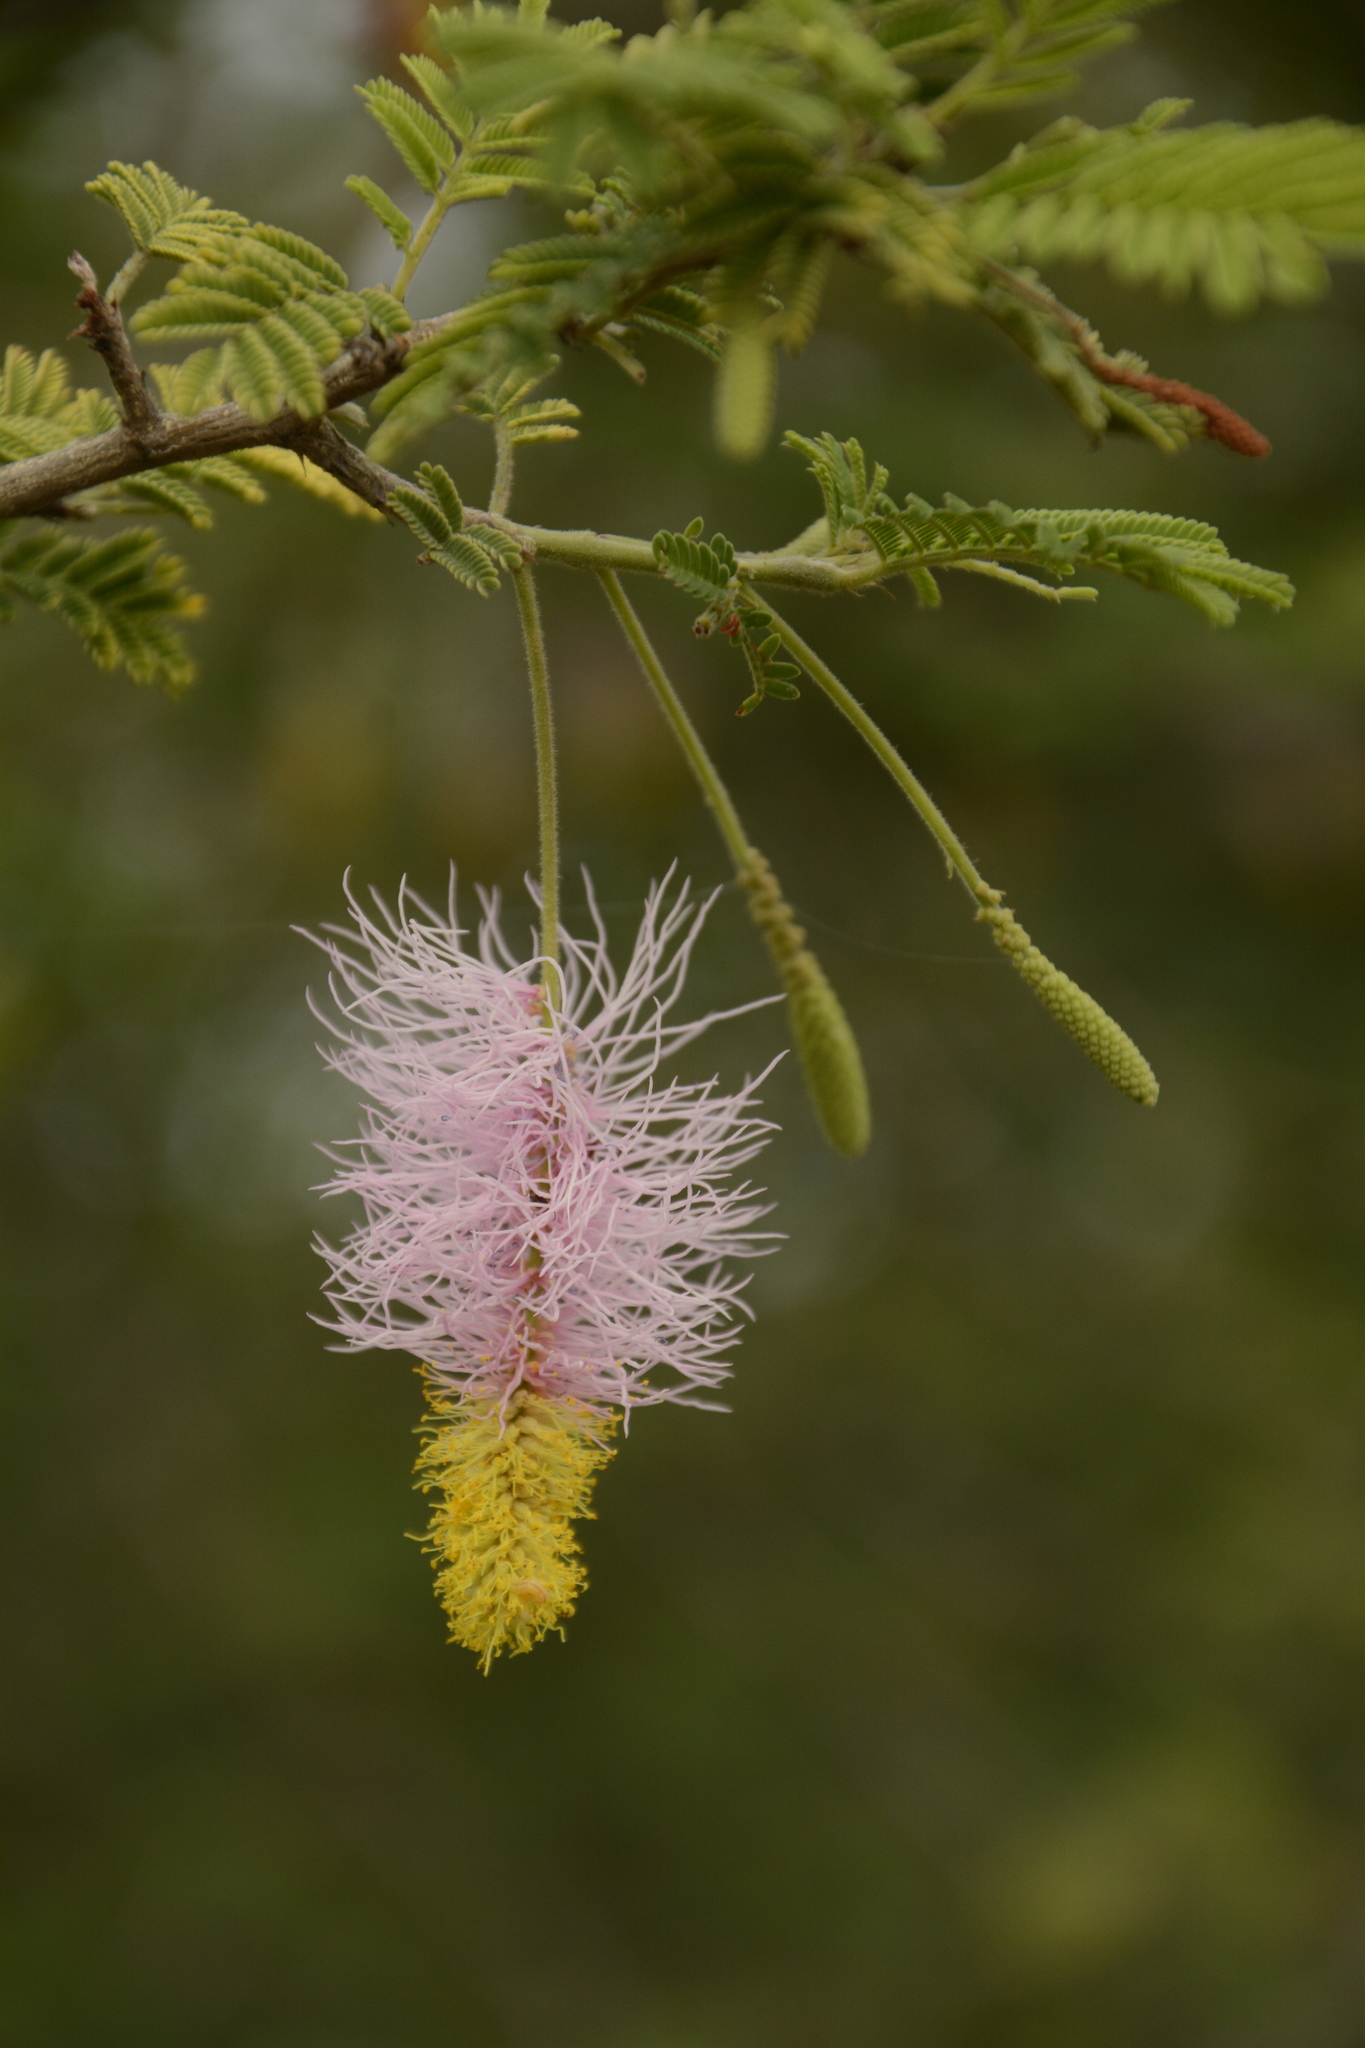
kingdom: Plantae
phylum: Tracheophyta
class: Magnoliopsida
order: Fabales
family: Fabaceae
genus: Dichrostachys
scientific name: Dichrostachys cinerea
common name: Sicklebush
